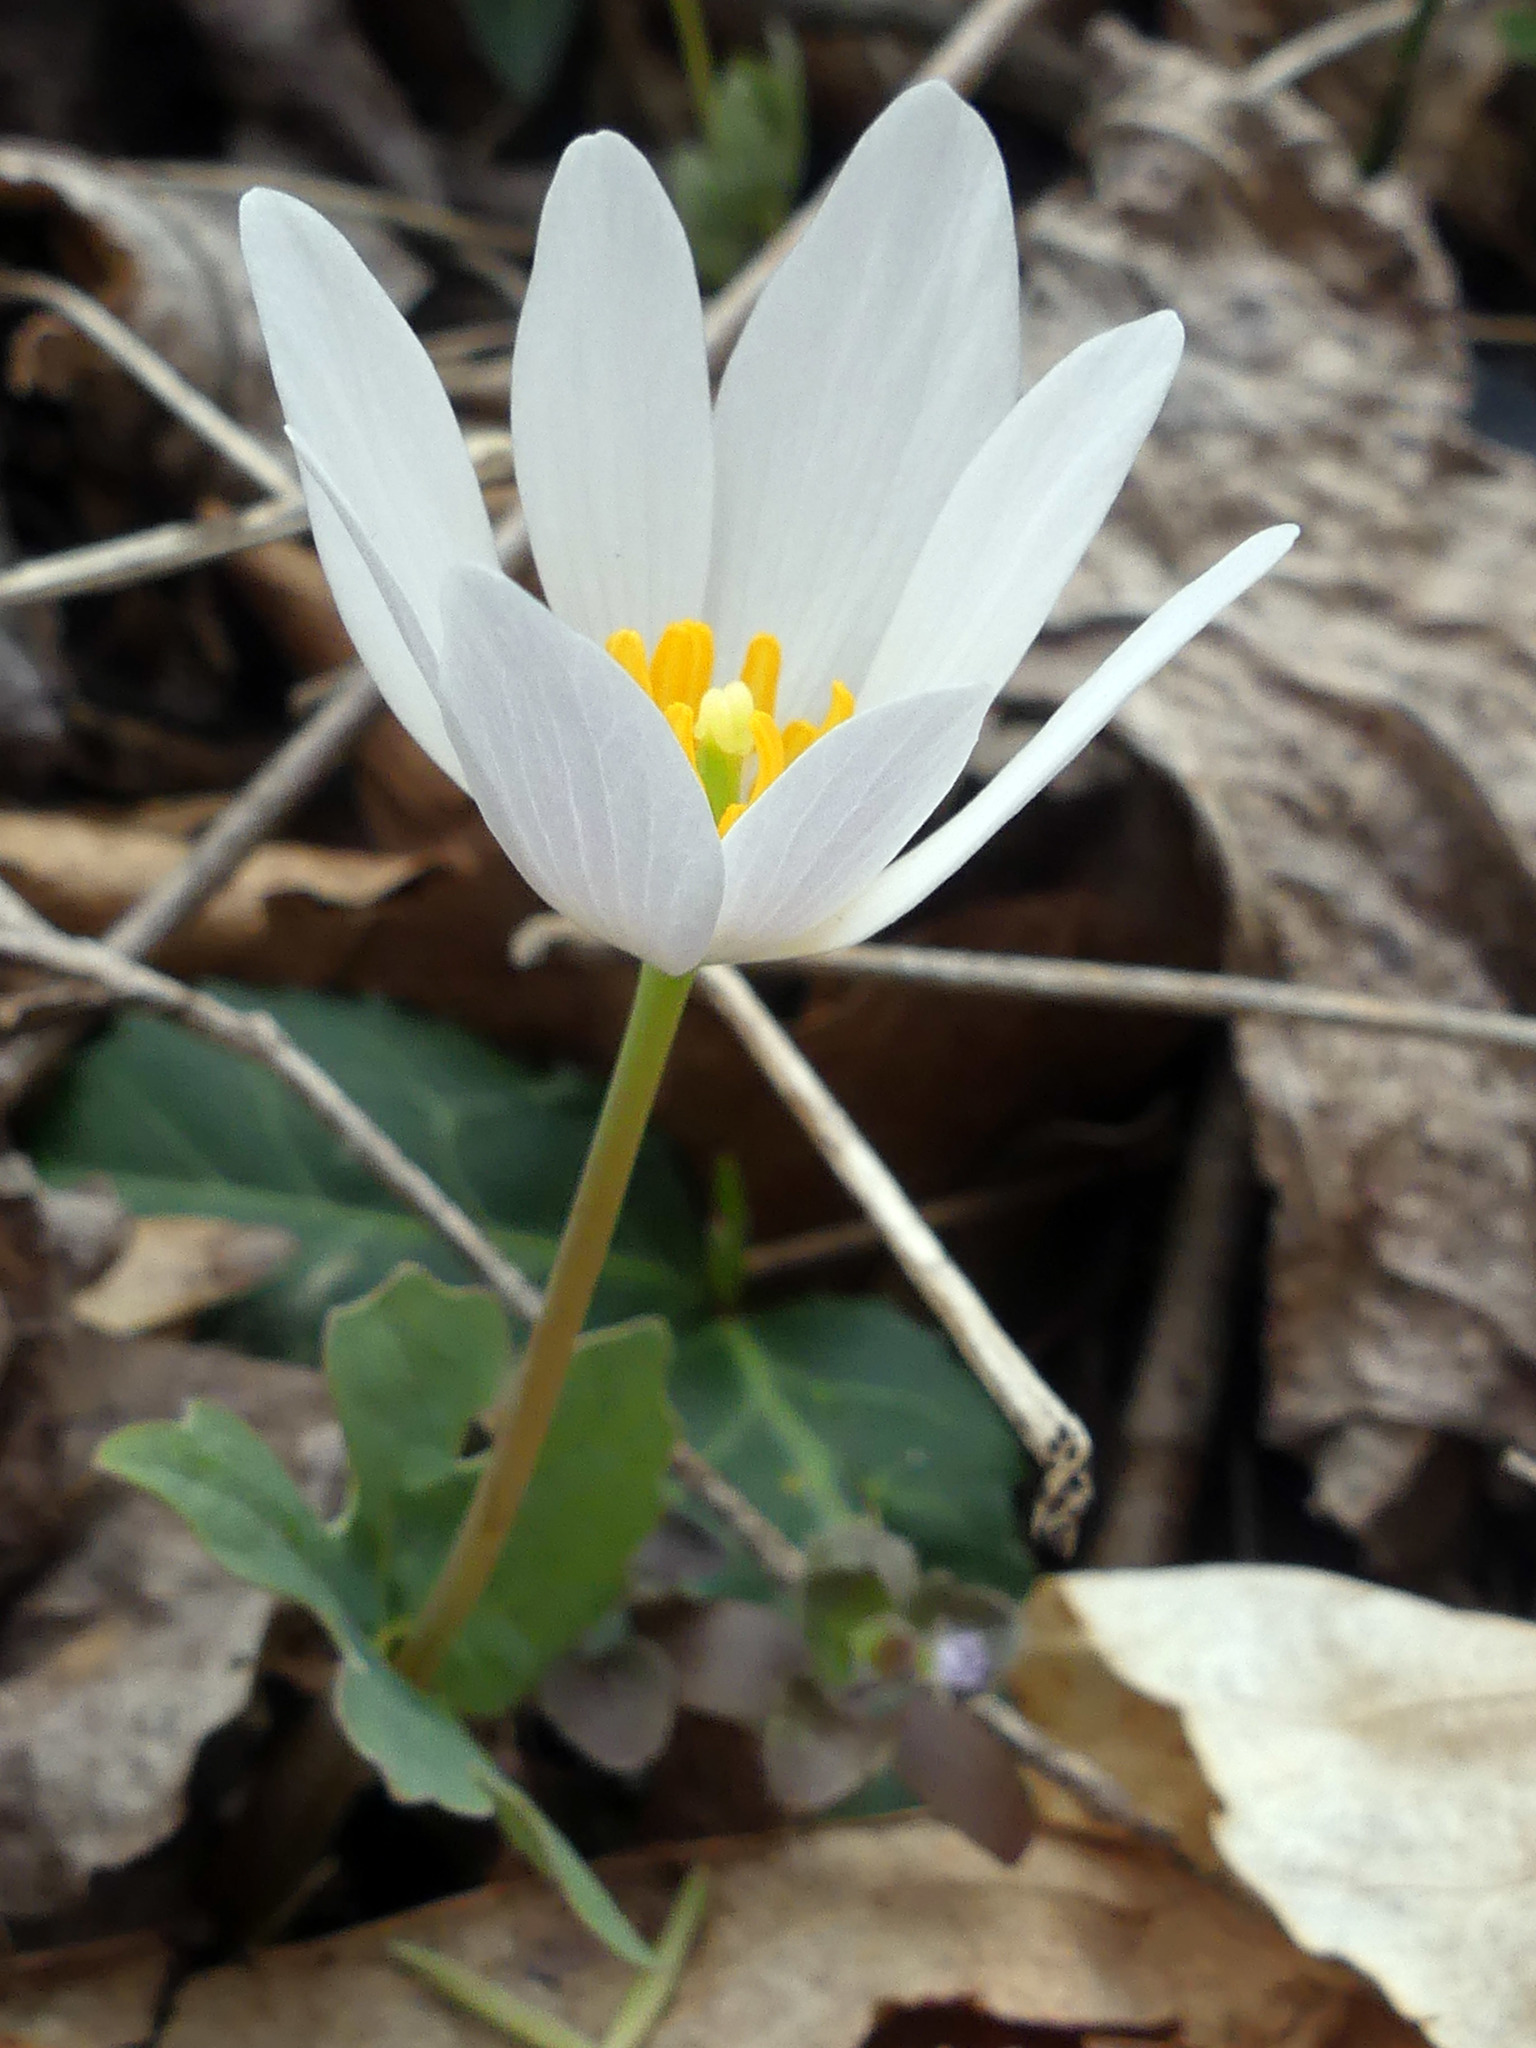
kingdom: Plantae
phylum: Tracheophyta
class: Magnoliopsida
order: Ranunculales
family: Papaveraceae
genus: Sanguinaria
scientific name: Sanguinaria canadensis
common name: Bloodroot
